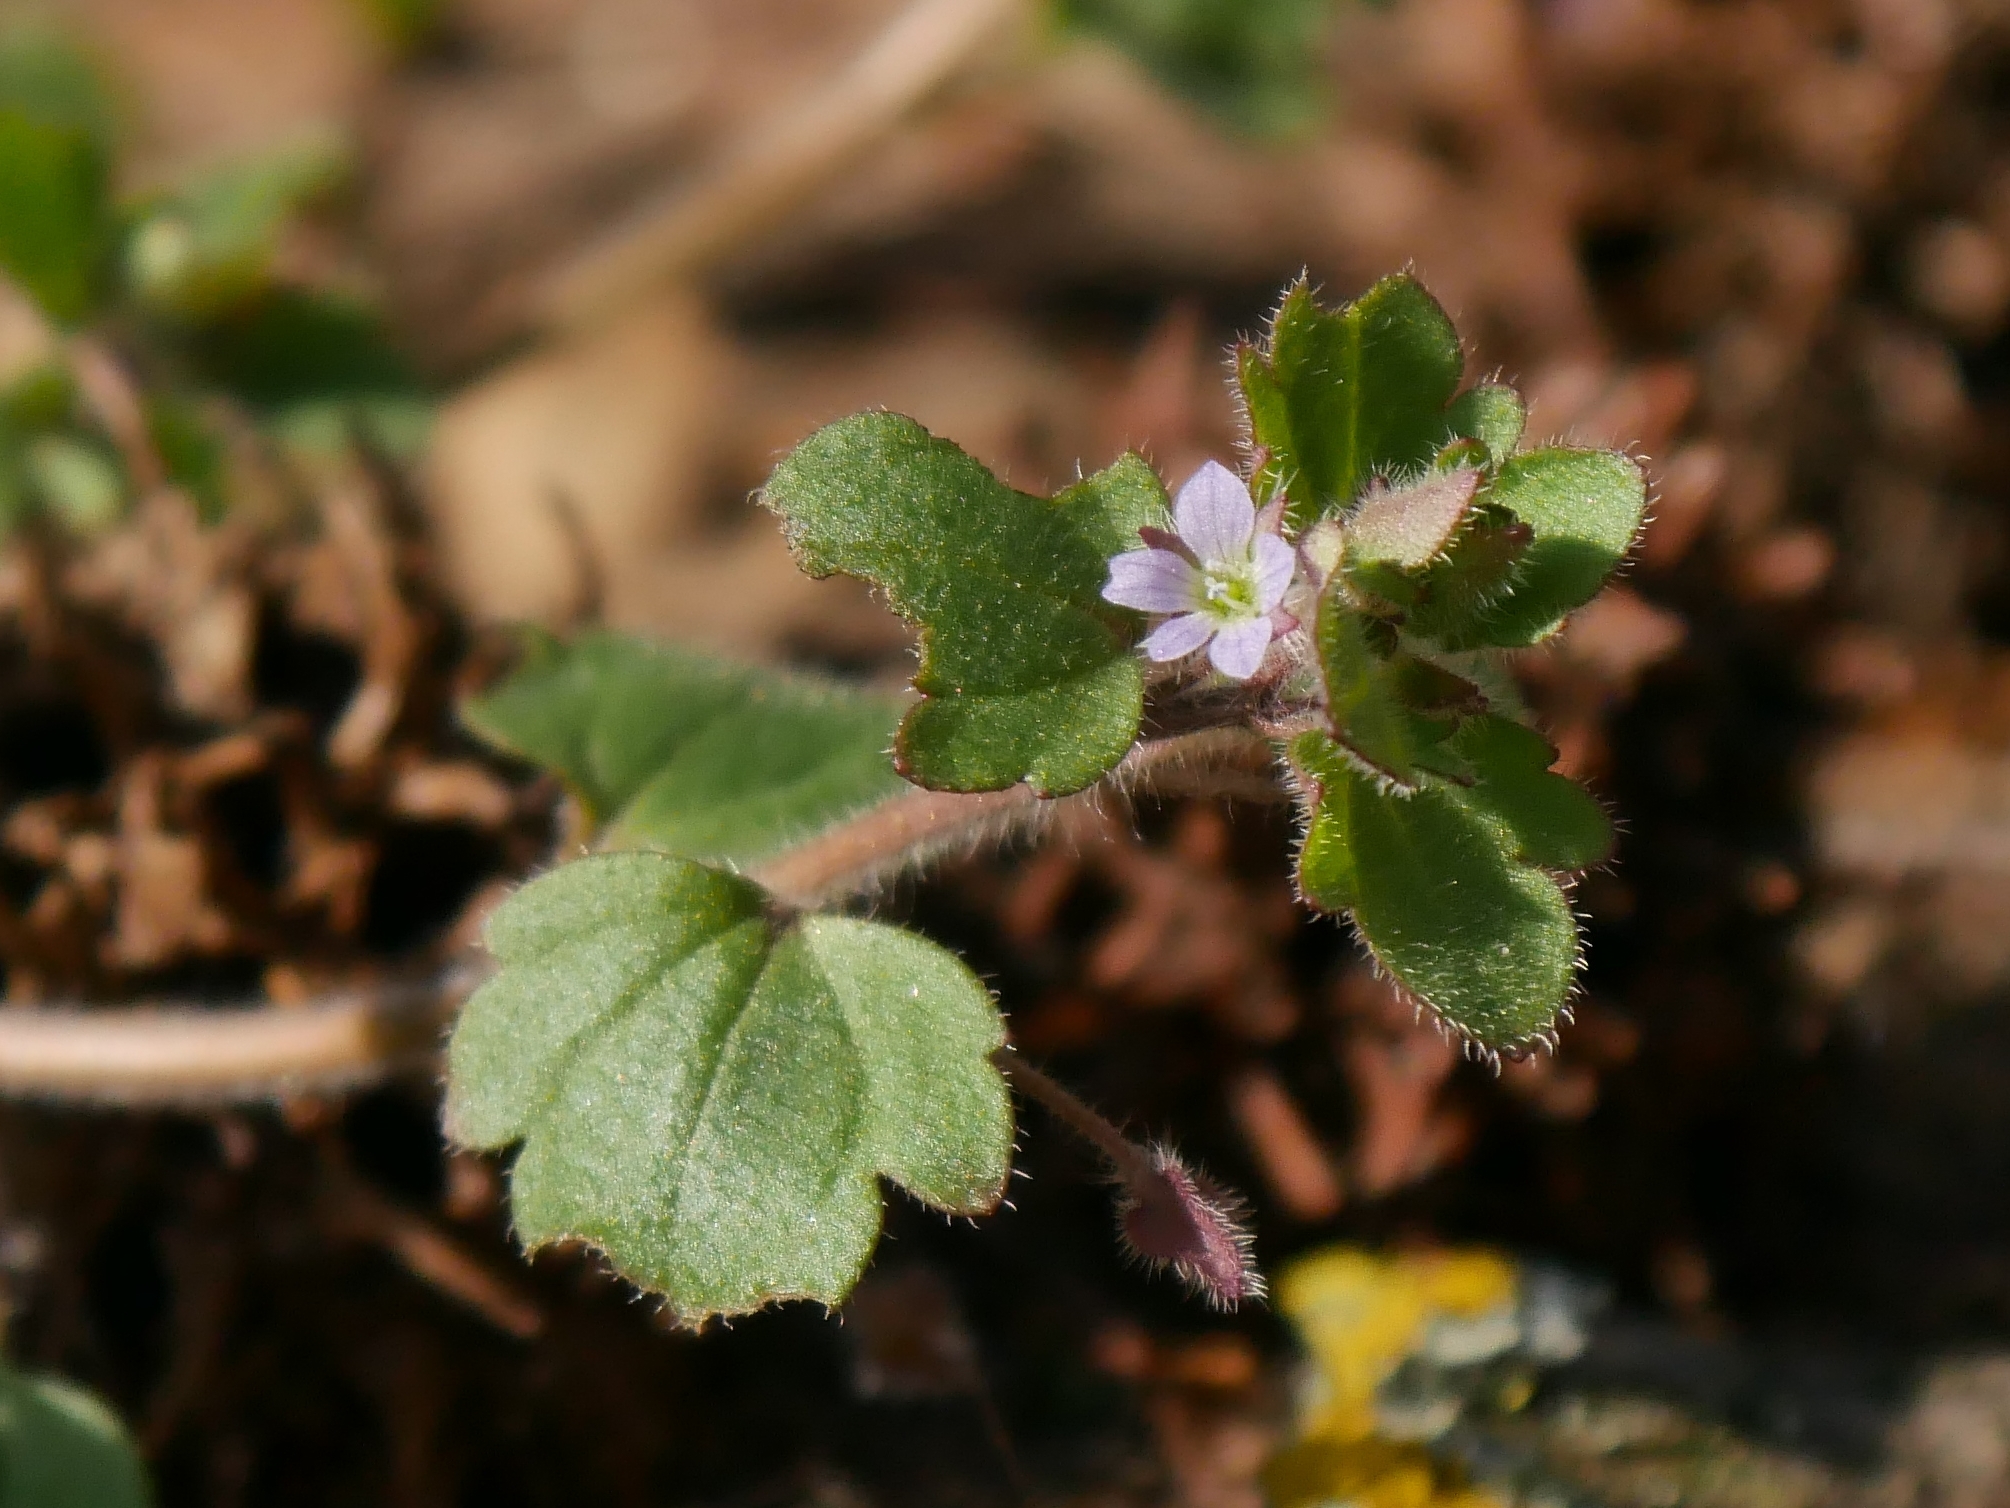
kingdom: Plantae
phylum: Tracheophyta
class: Magnoliopsida
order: Lamiales
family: Plantaginaceae
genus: Veronica
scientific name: Veronica sublobata
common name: False ivy-leaved speedwell
